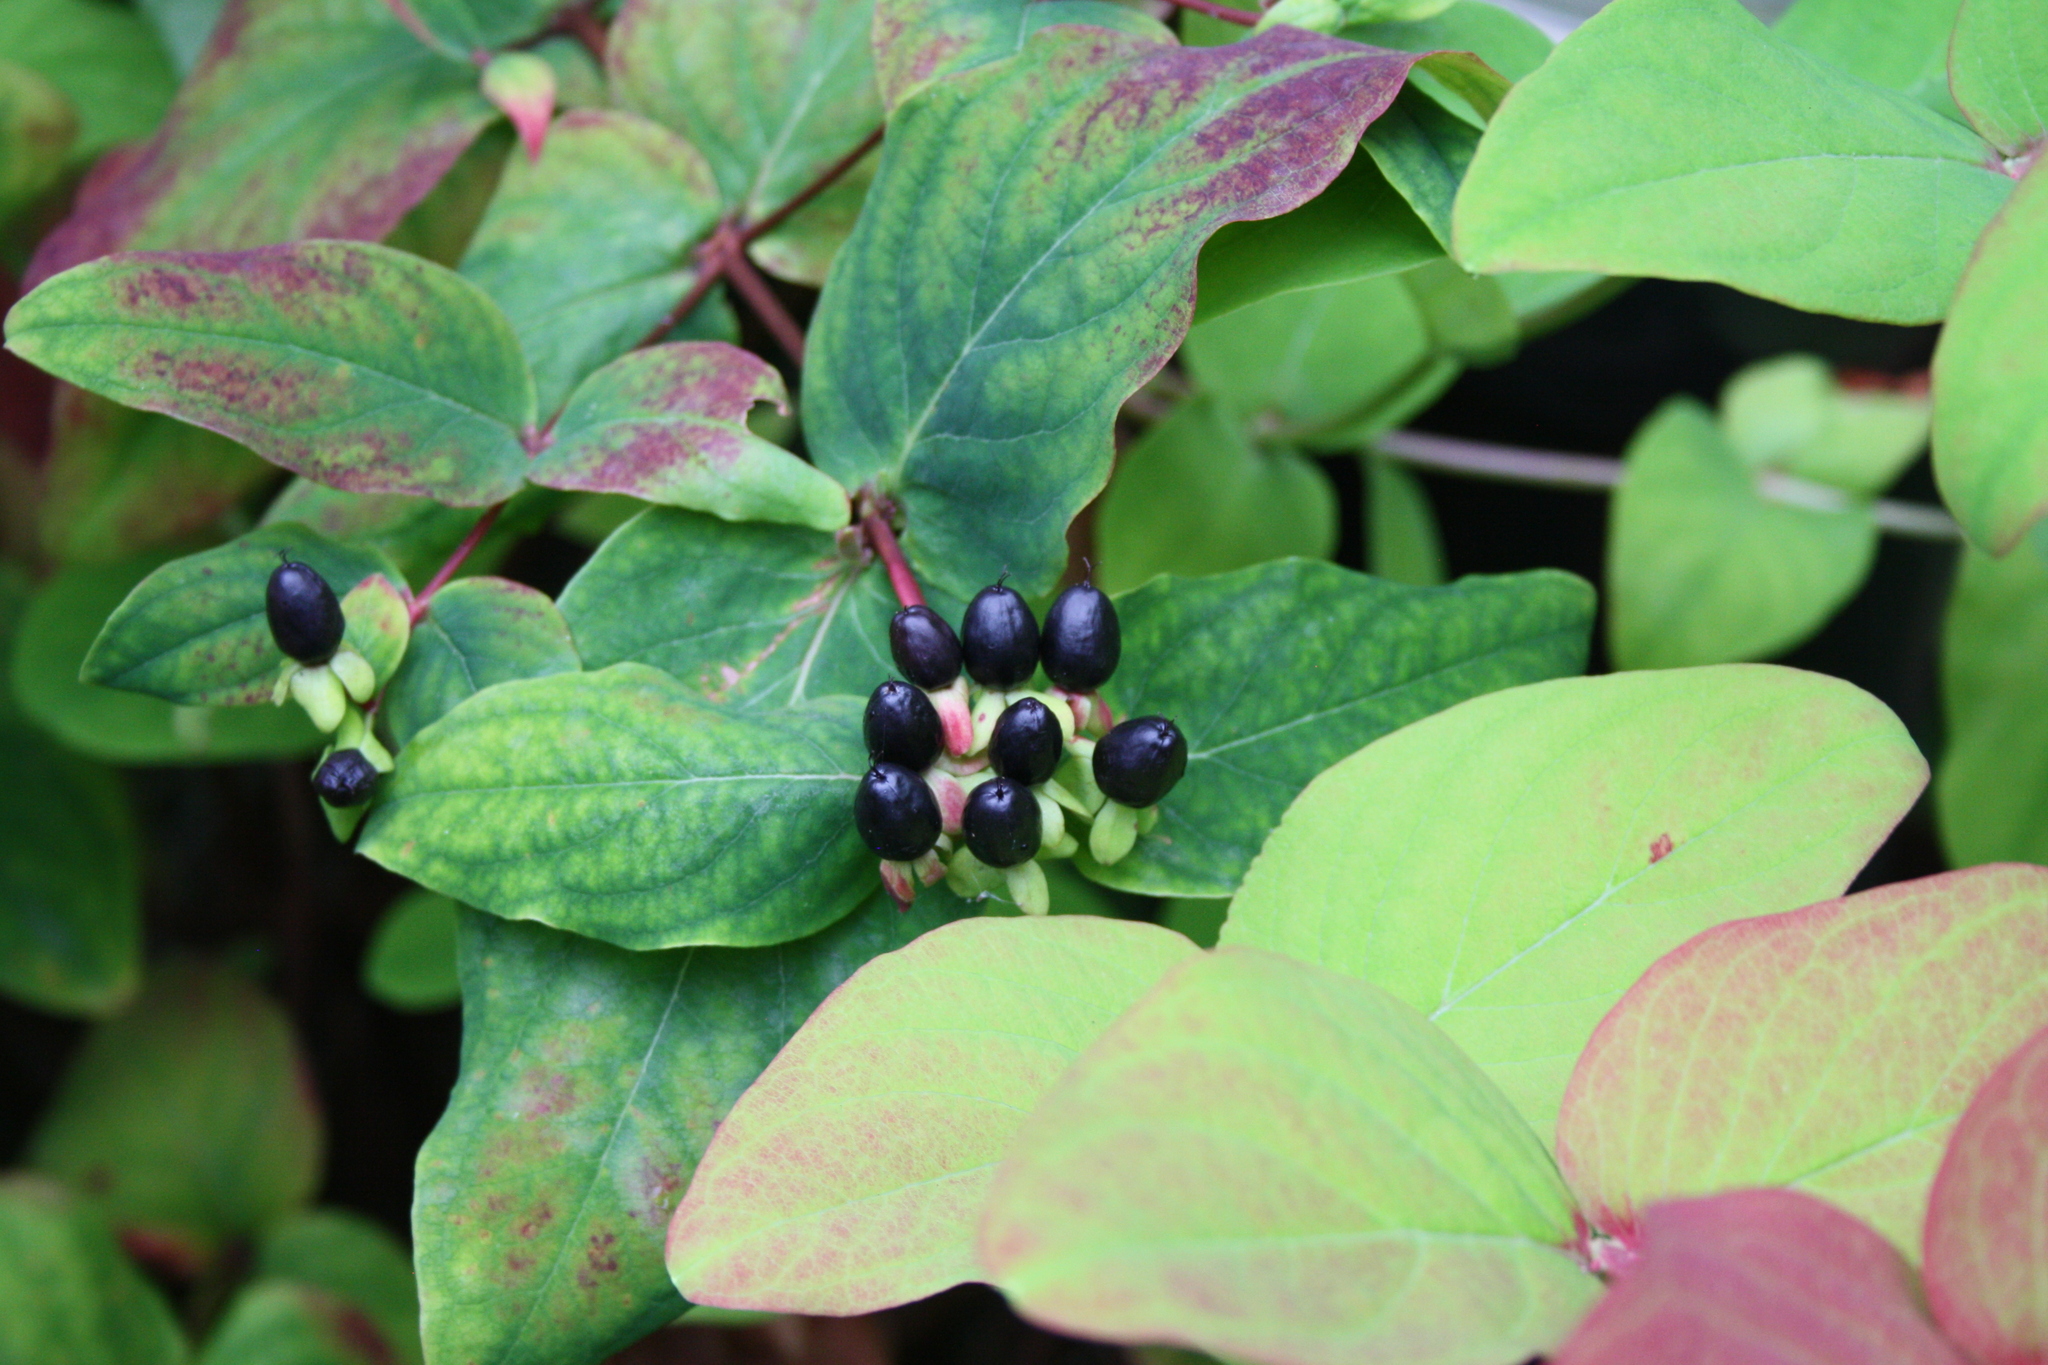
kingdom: Plantae
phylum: Tracheophyta
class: Magnoliopsida
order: Malpighiales
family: Hypericaceae
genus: Hypericum
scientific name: Hypericum androsaemum
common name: Sweet-amber
